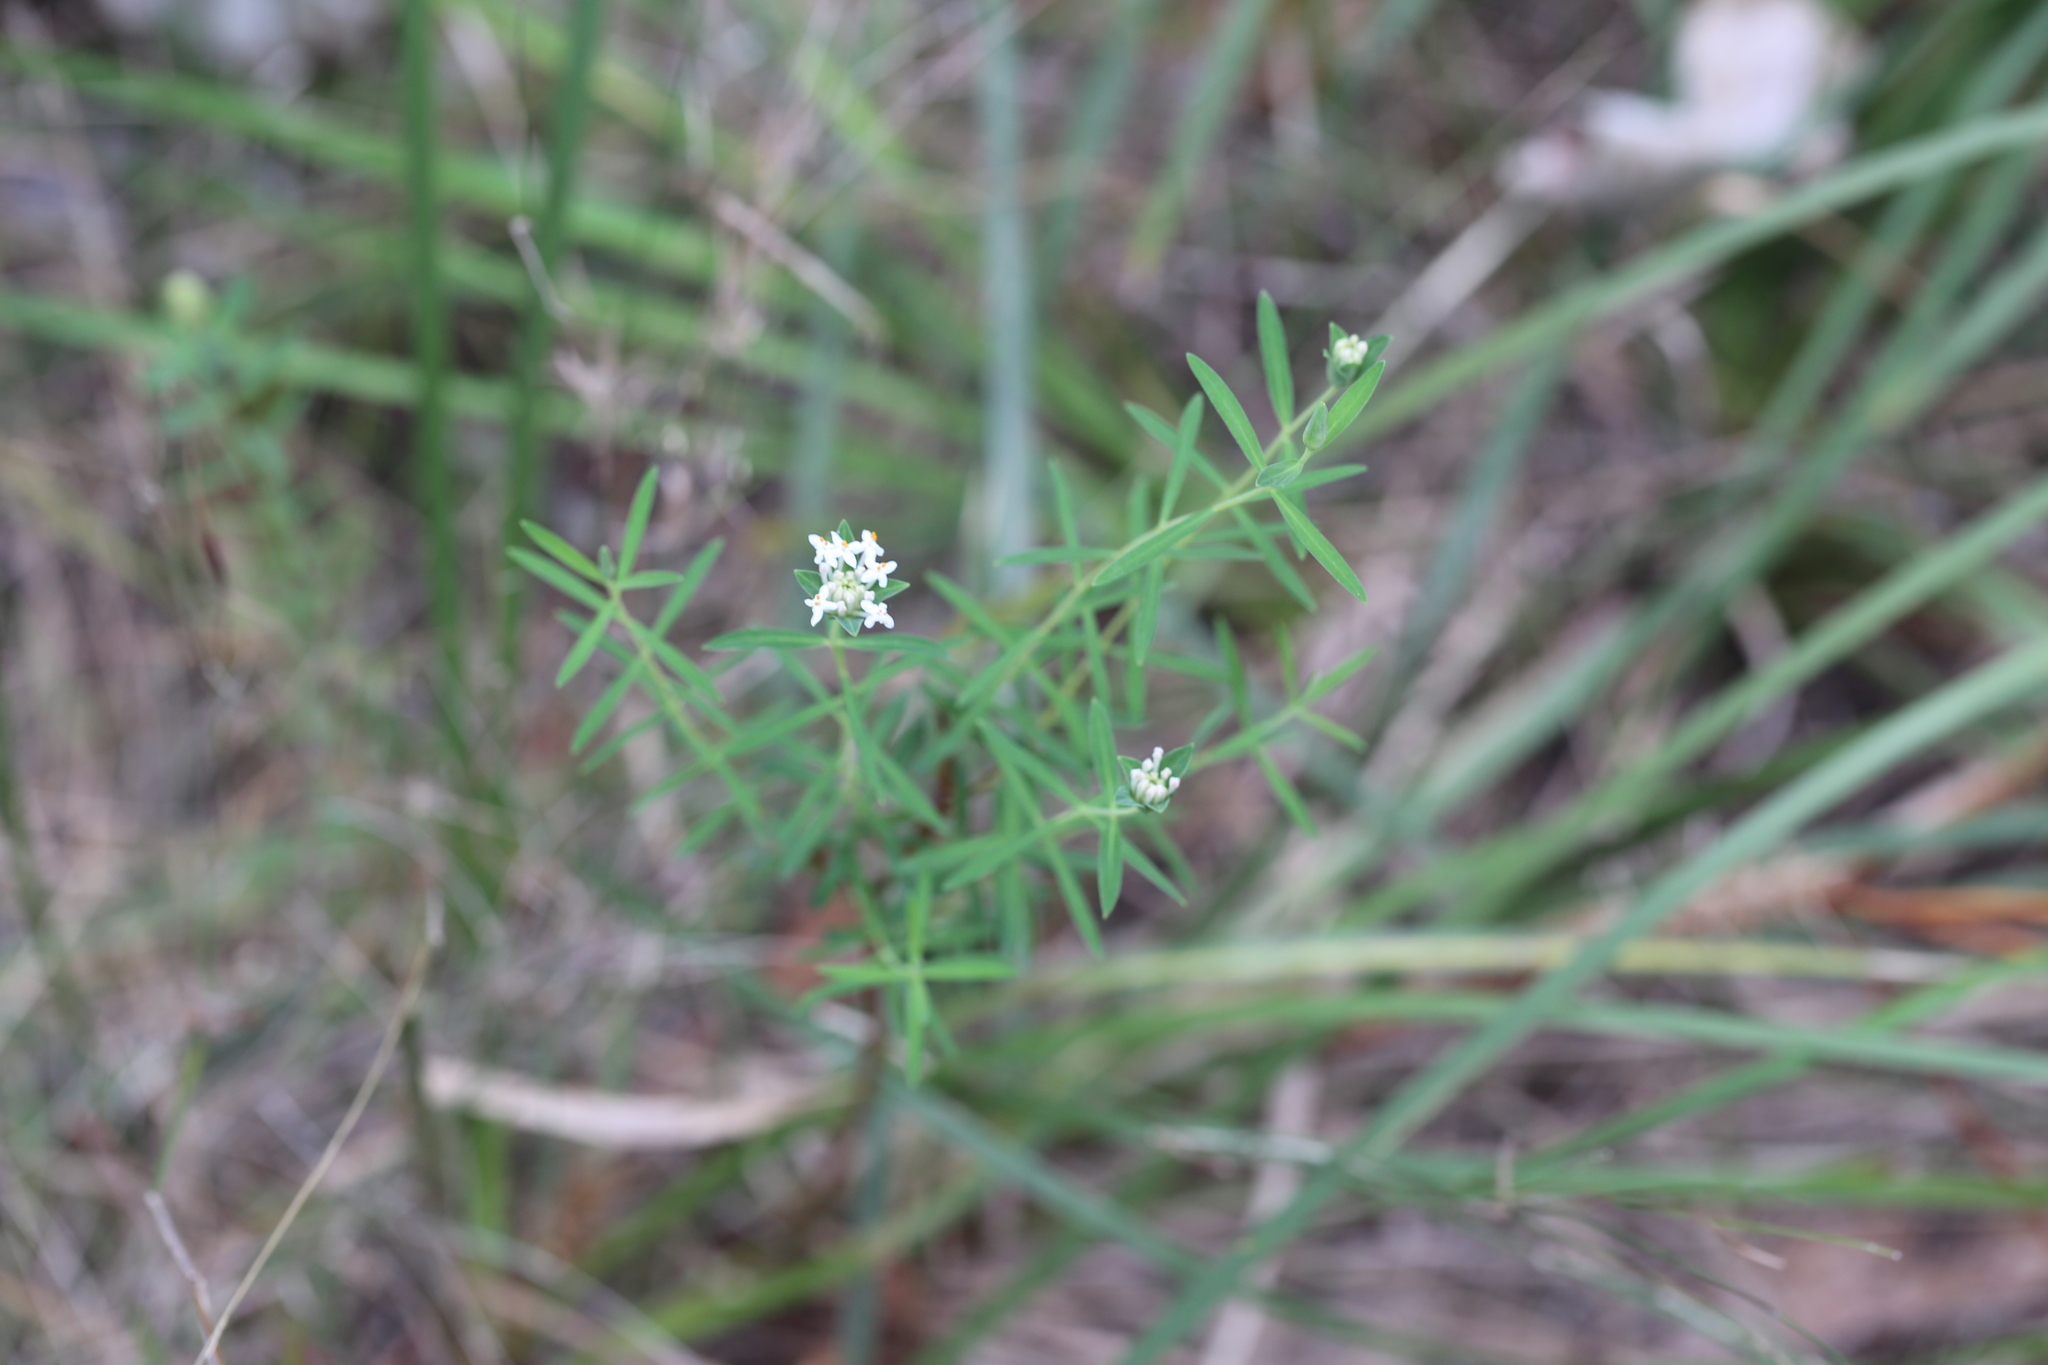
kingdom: Plantae
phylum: Tracheophyta
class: Magnoliopsida
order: Malvales
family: Thymelaeaceae
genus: Pimelea
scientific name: Pimelea linifolia
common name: Queen-of-the-bush
